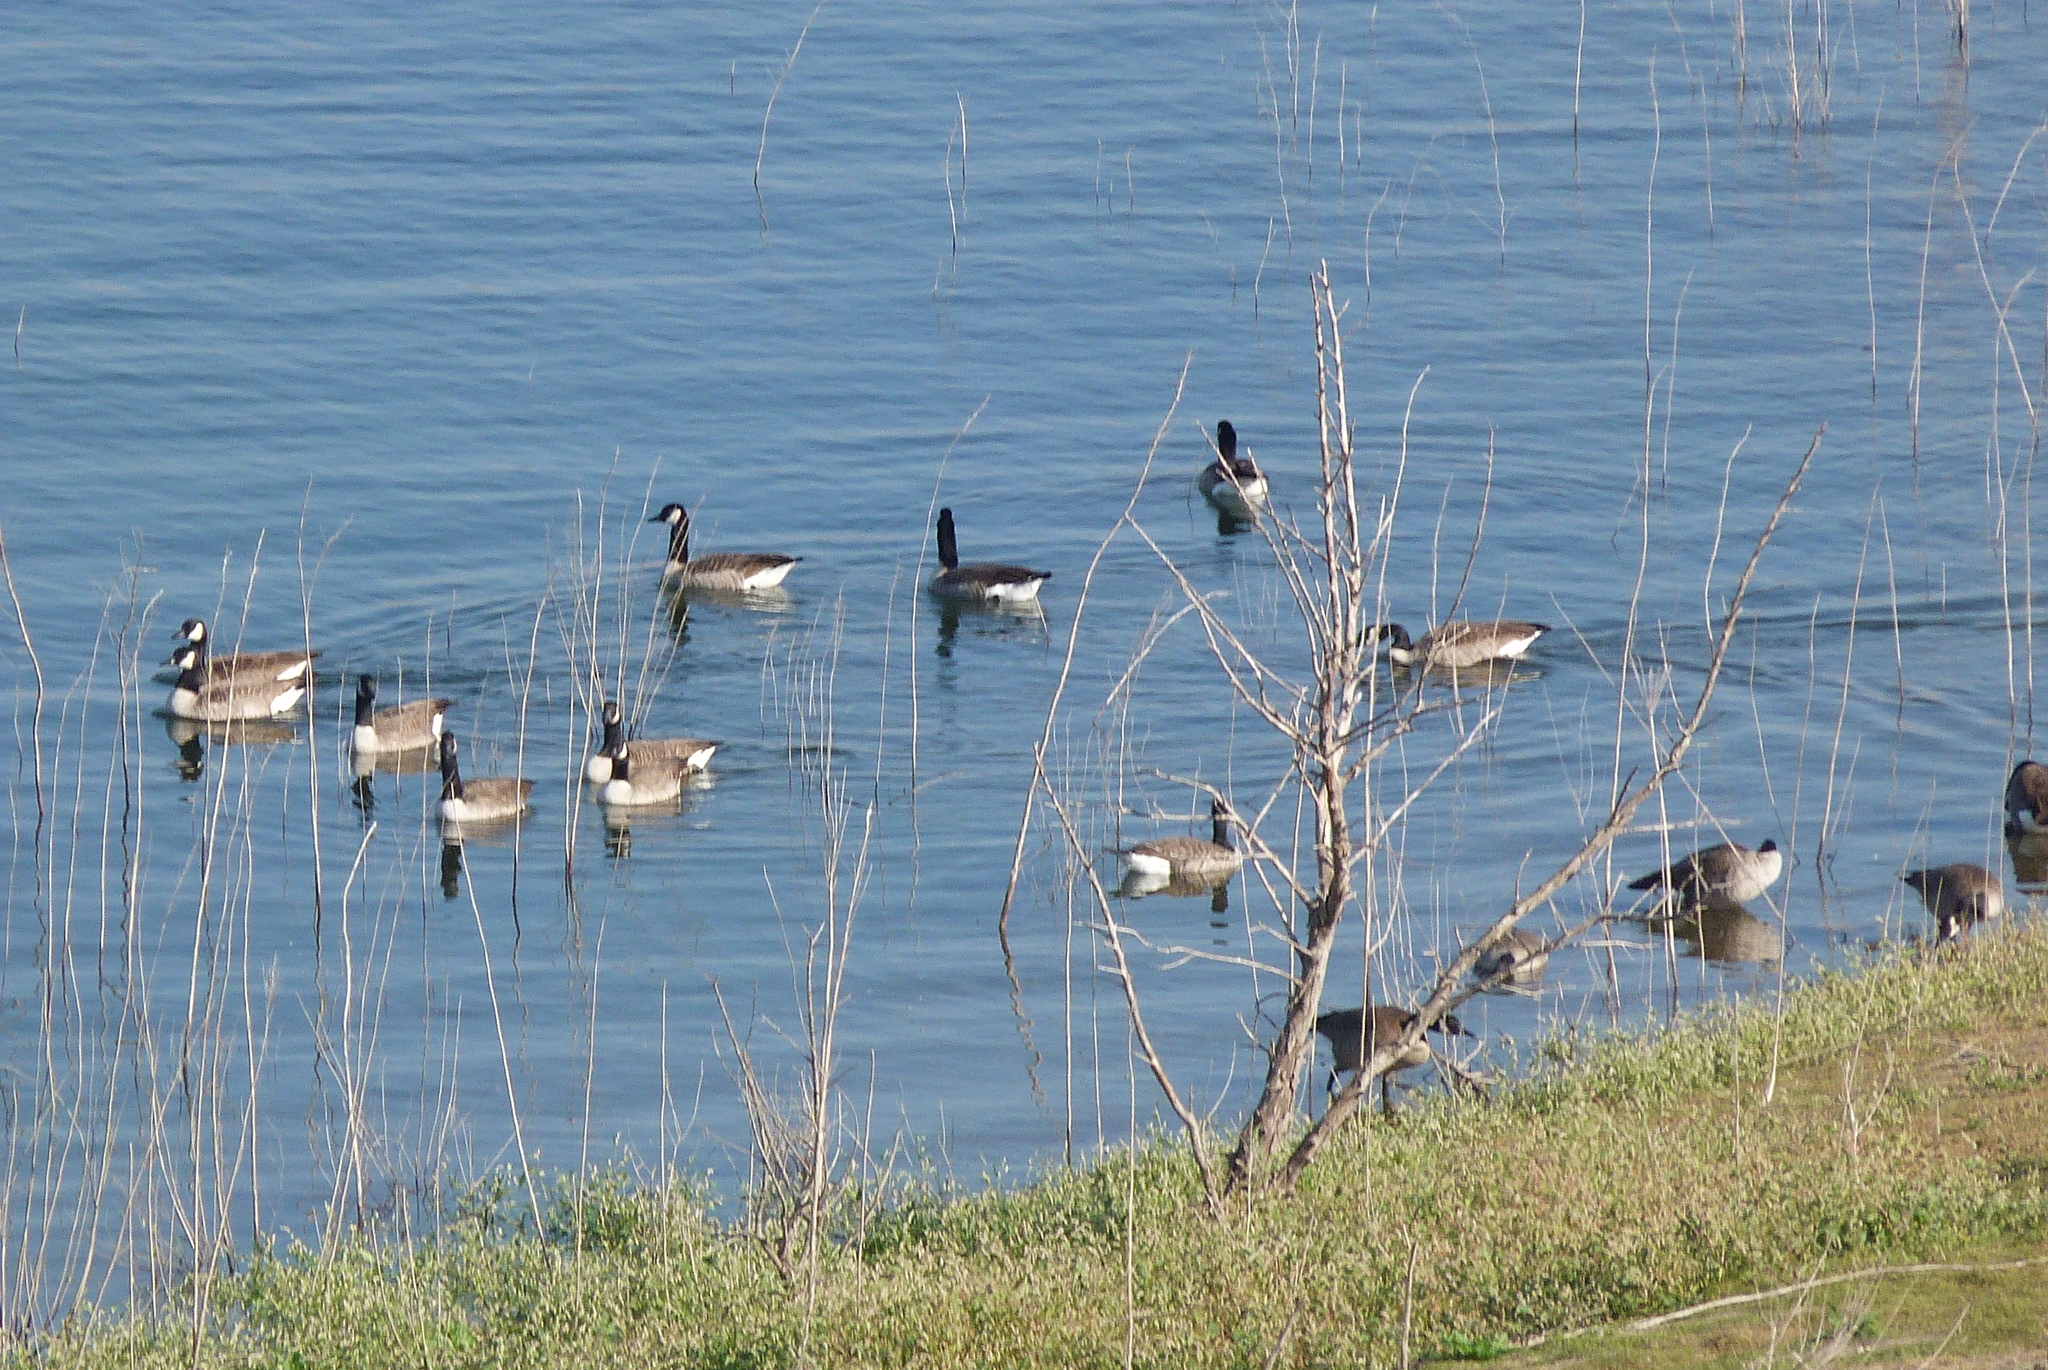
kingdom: Animalia
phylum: Chordata
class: Aves
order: Anseriformes
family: Anatidae
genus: Branta
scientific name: Branta canadensis
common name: Canada goose
